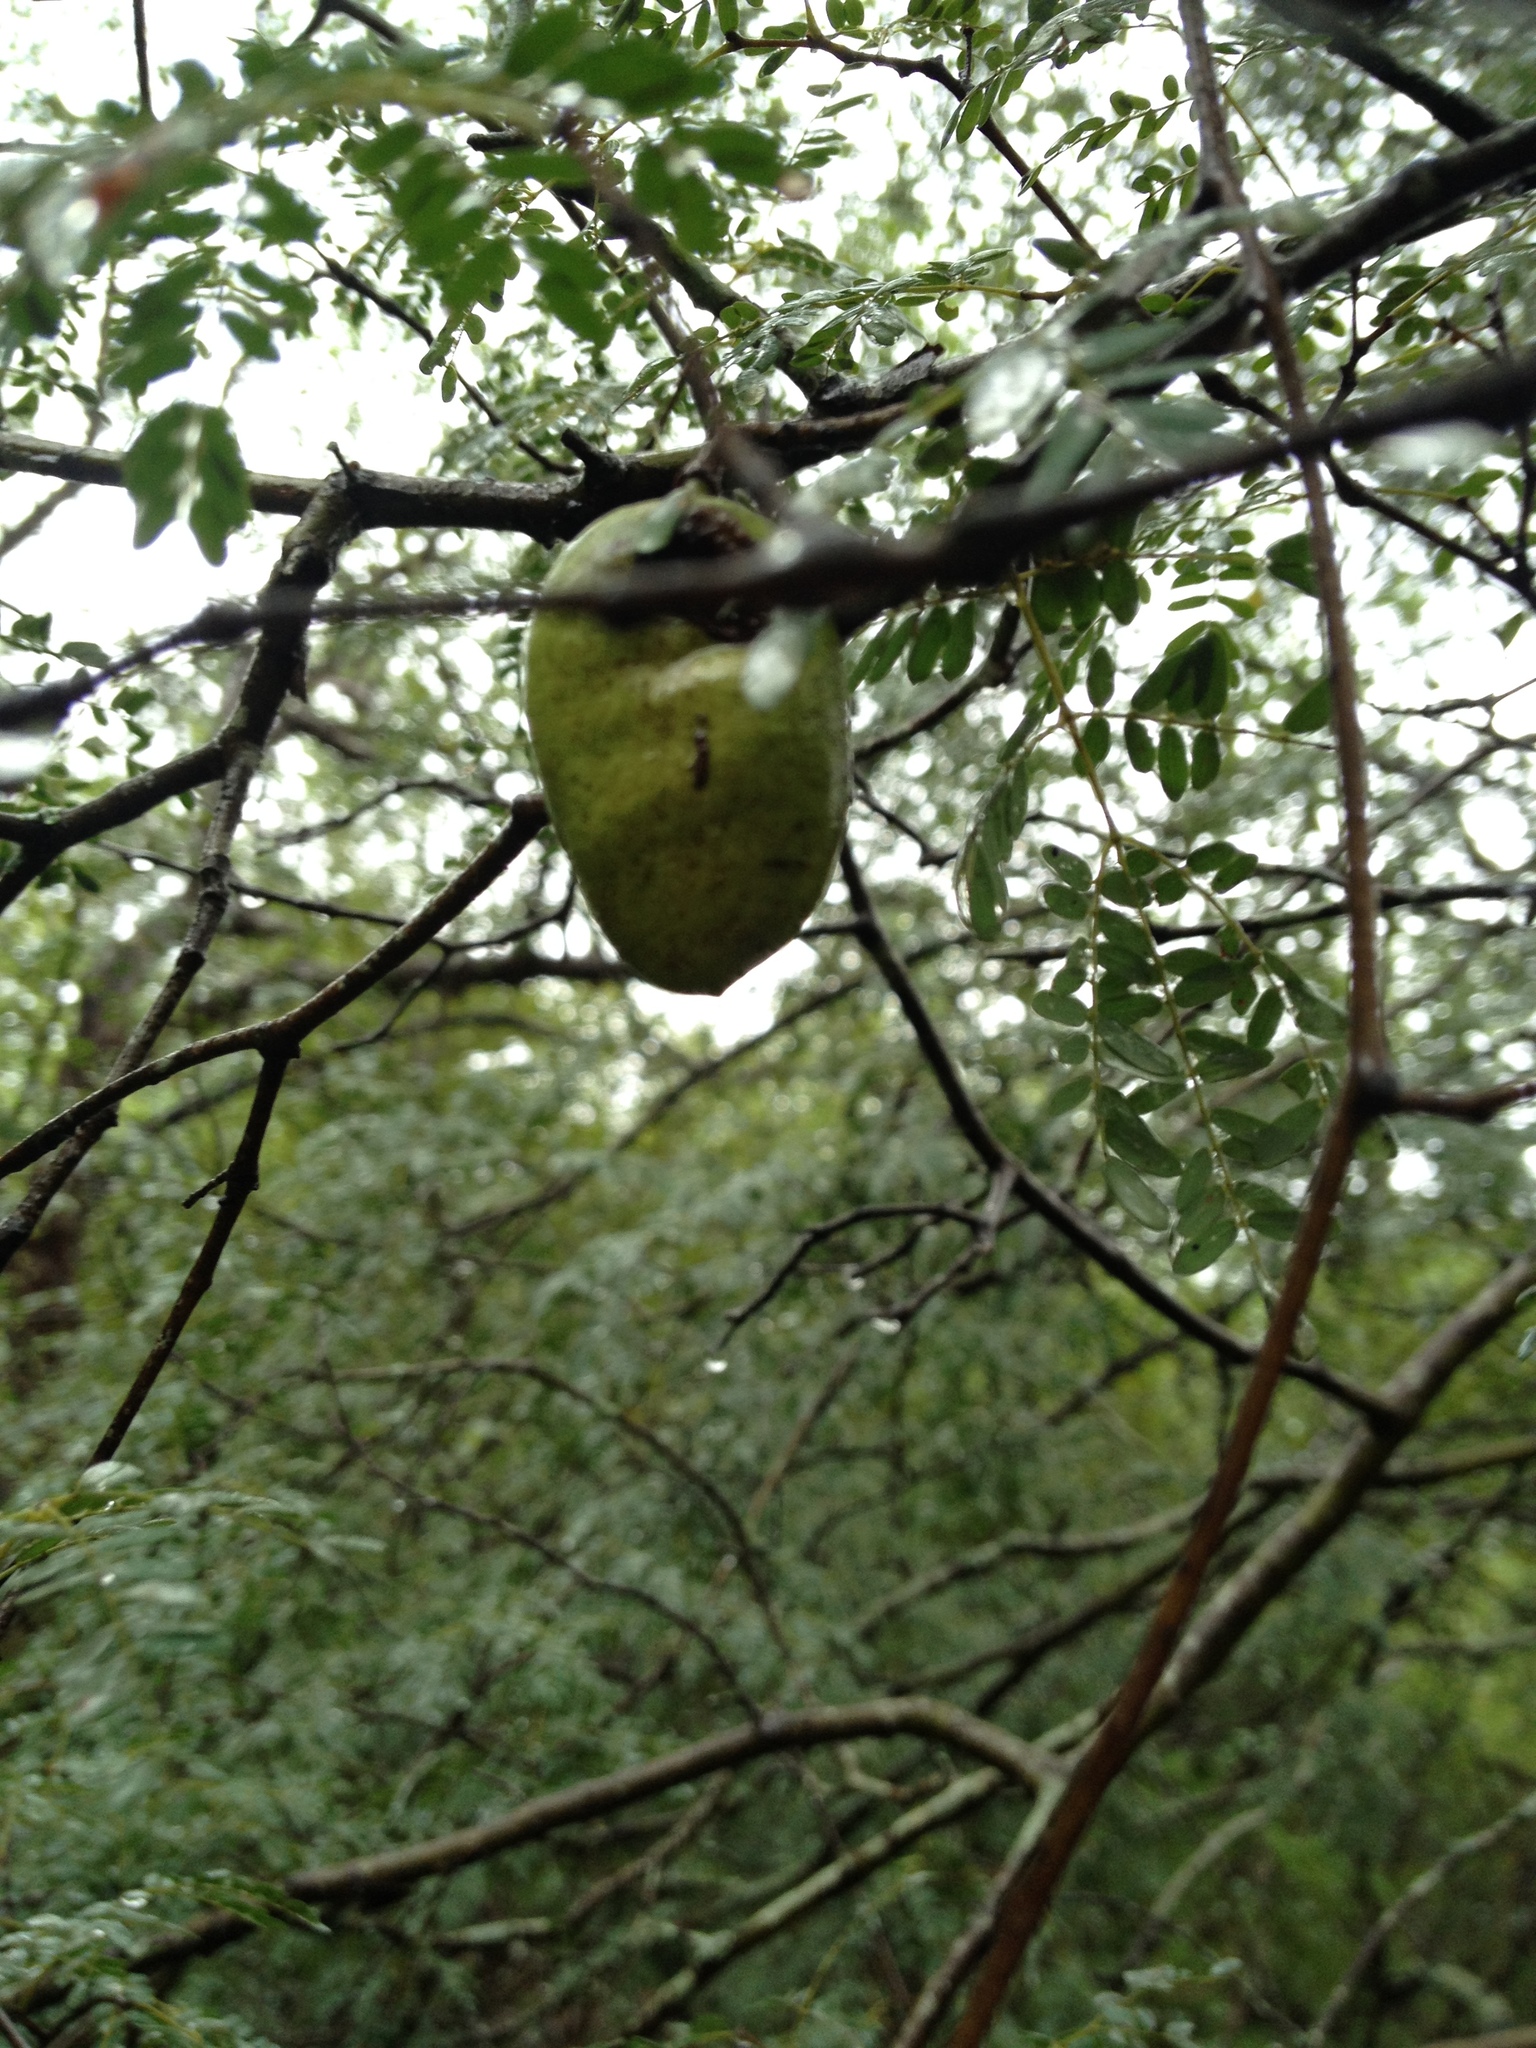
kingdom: Plantae
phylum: Tracheophyta
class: Magnoliopsida
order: Fabales
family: Fabaceae
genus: Libidibia
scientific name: Libidibia paraguariensis
